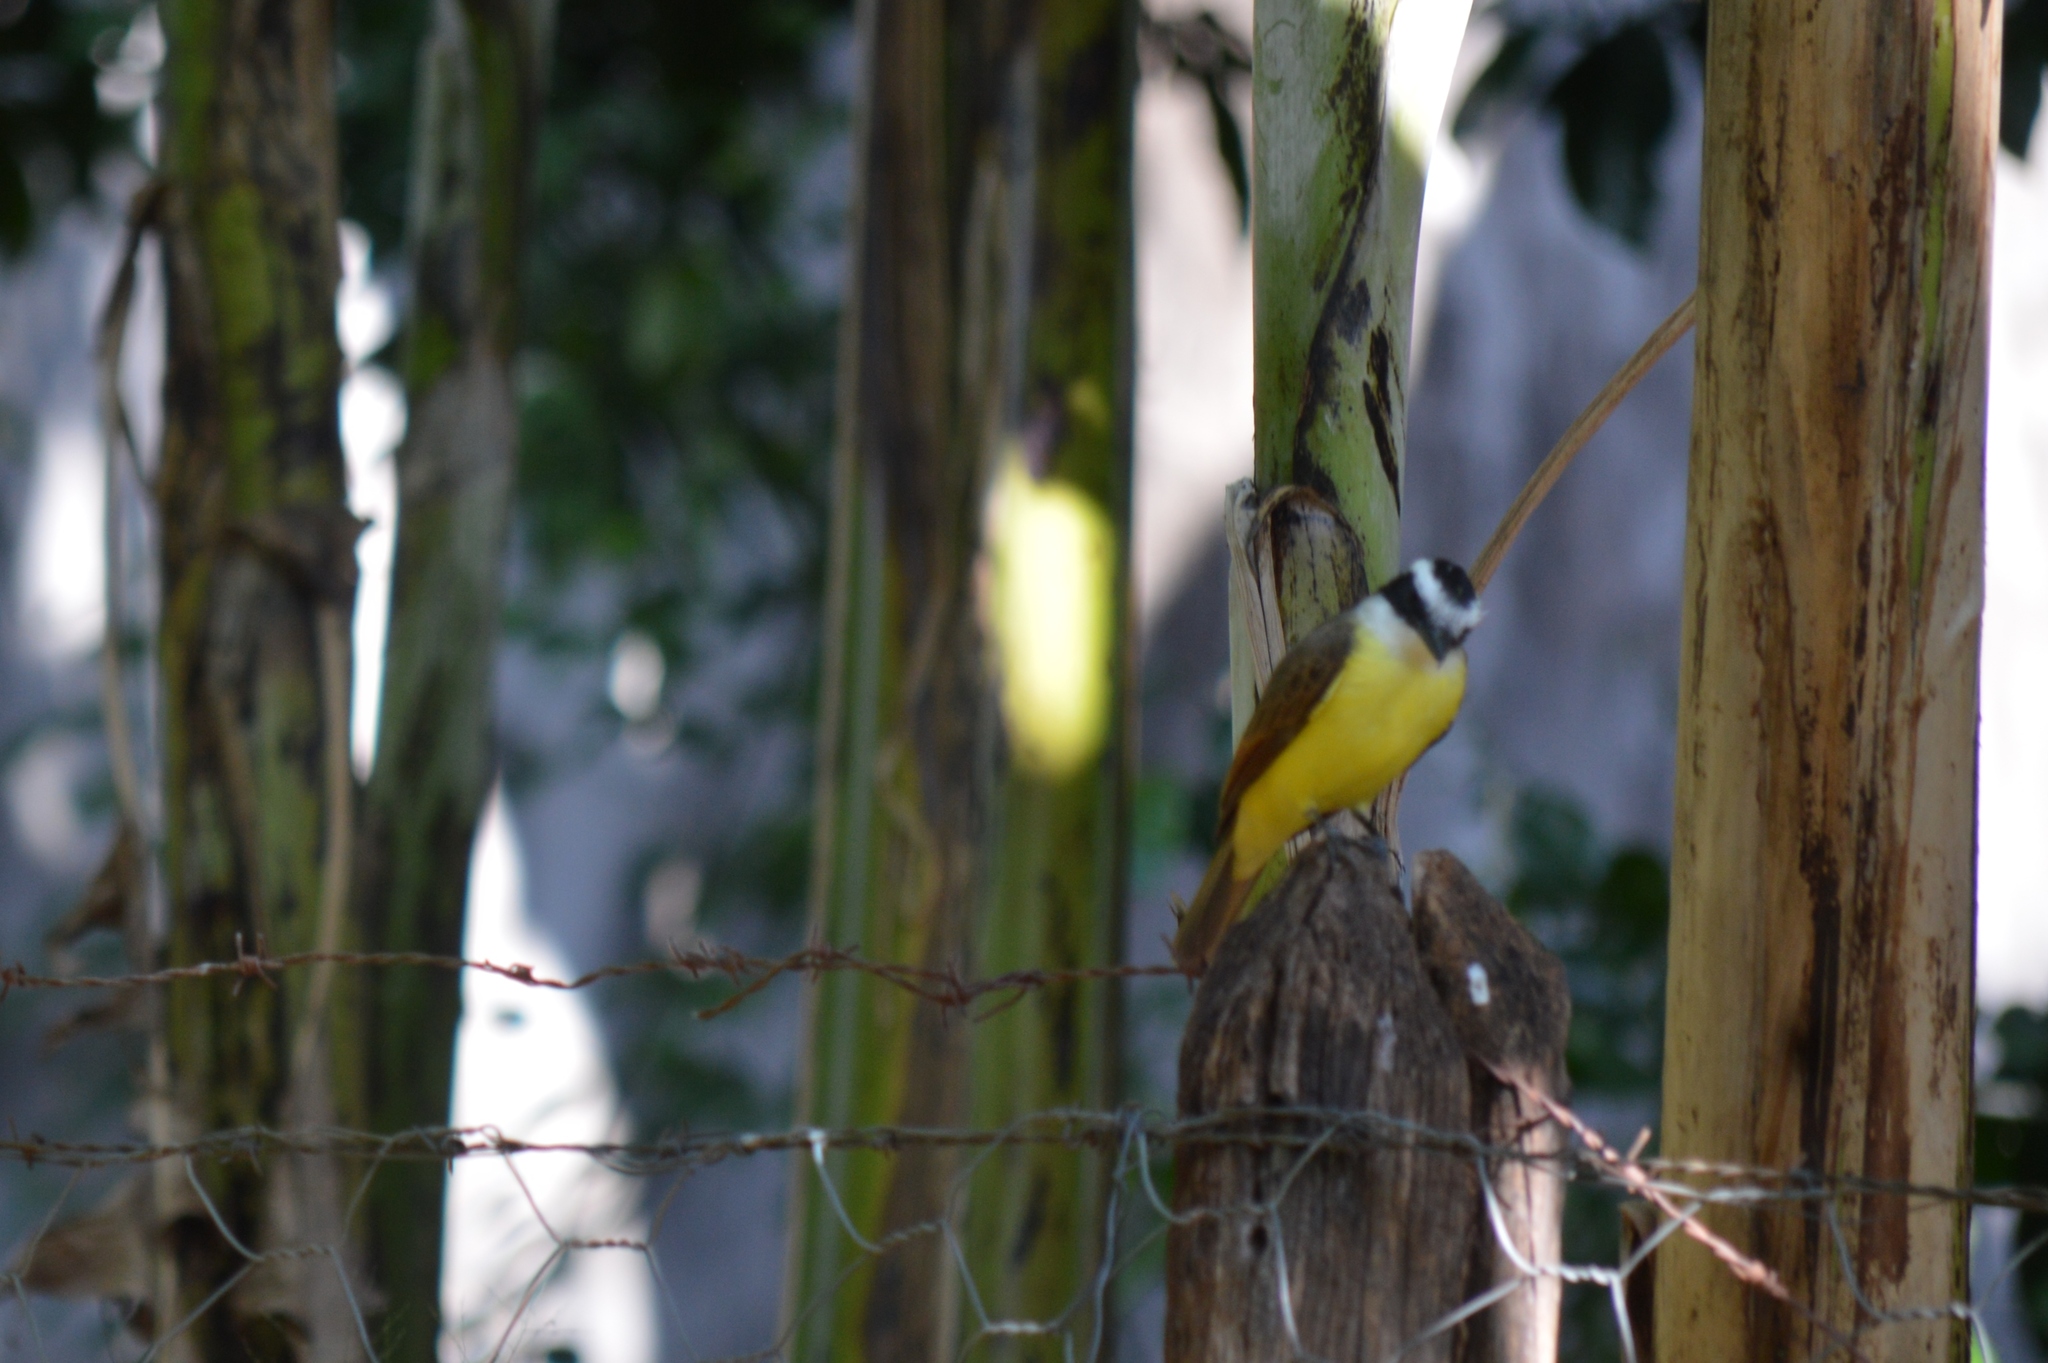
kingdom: Animalia
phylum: Chordata
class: Aves
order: Passeriformes
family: Tyrannidae
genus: Pitangus
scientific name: Pitangus sulphuratus
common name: Great kiskadee
